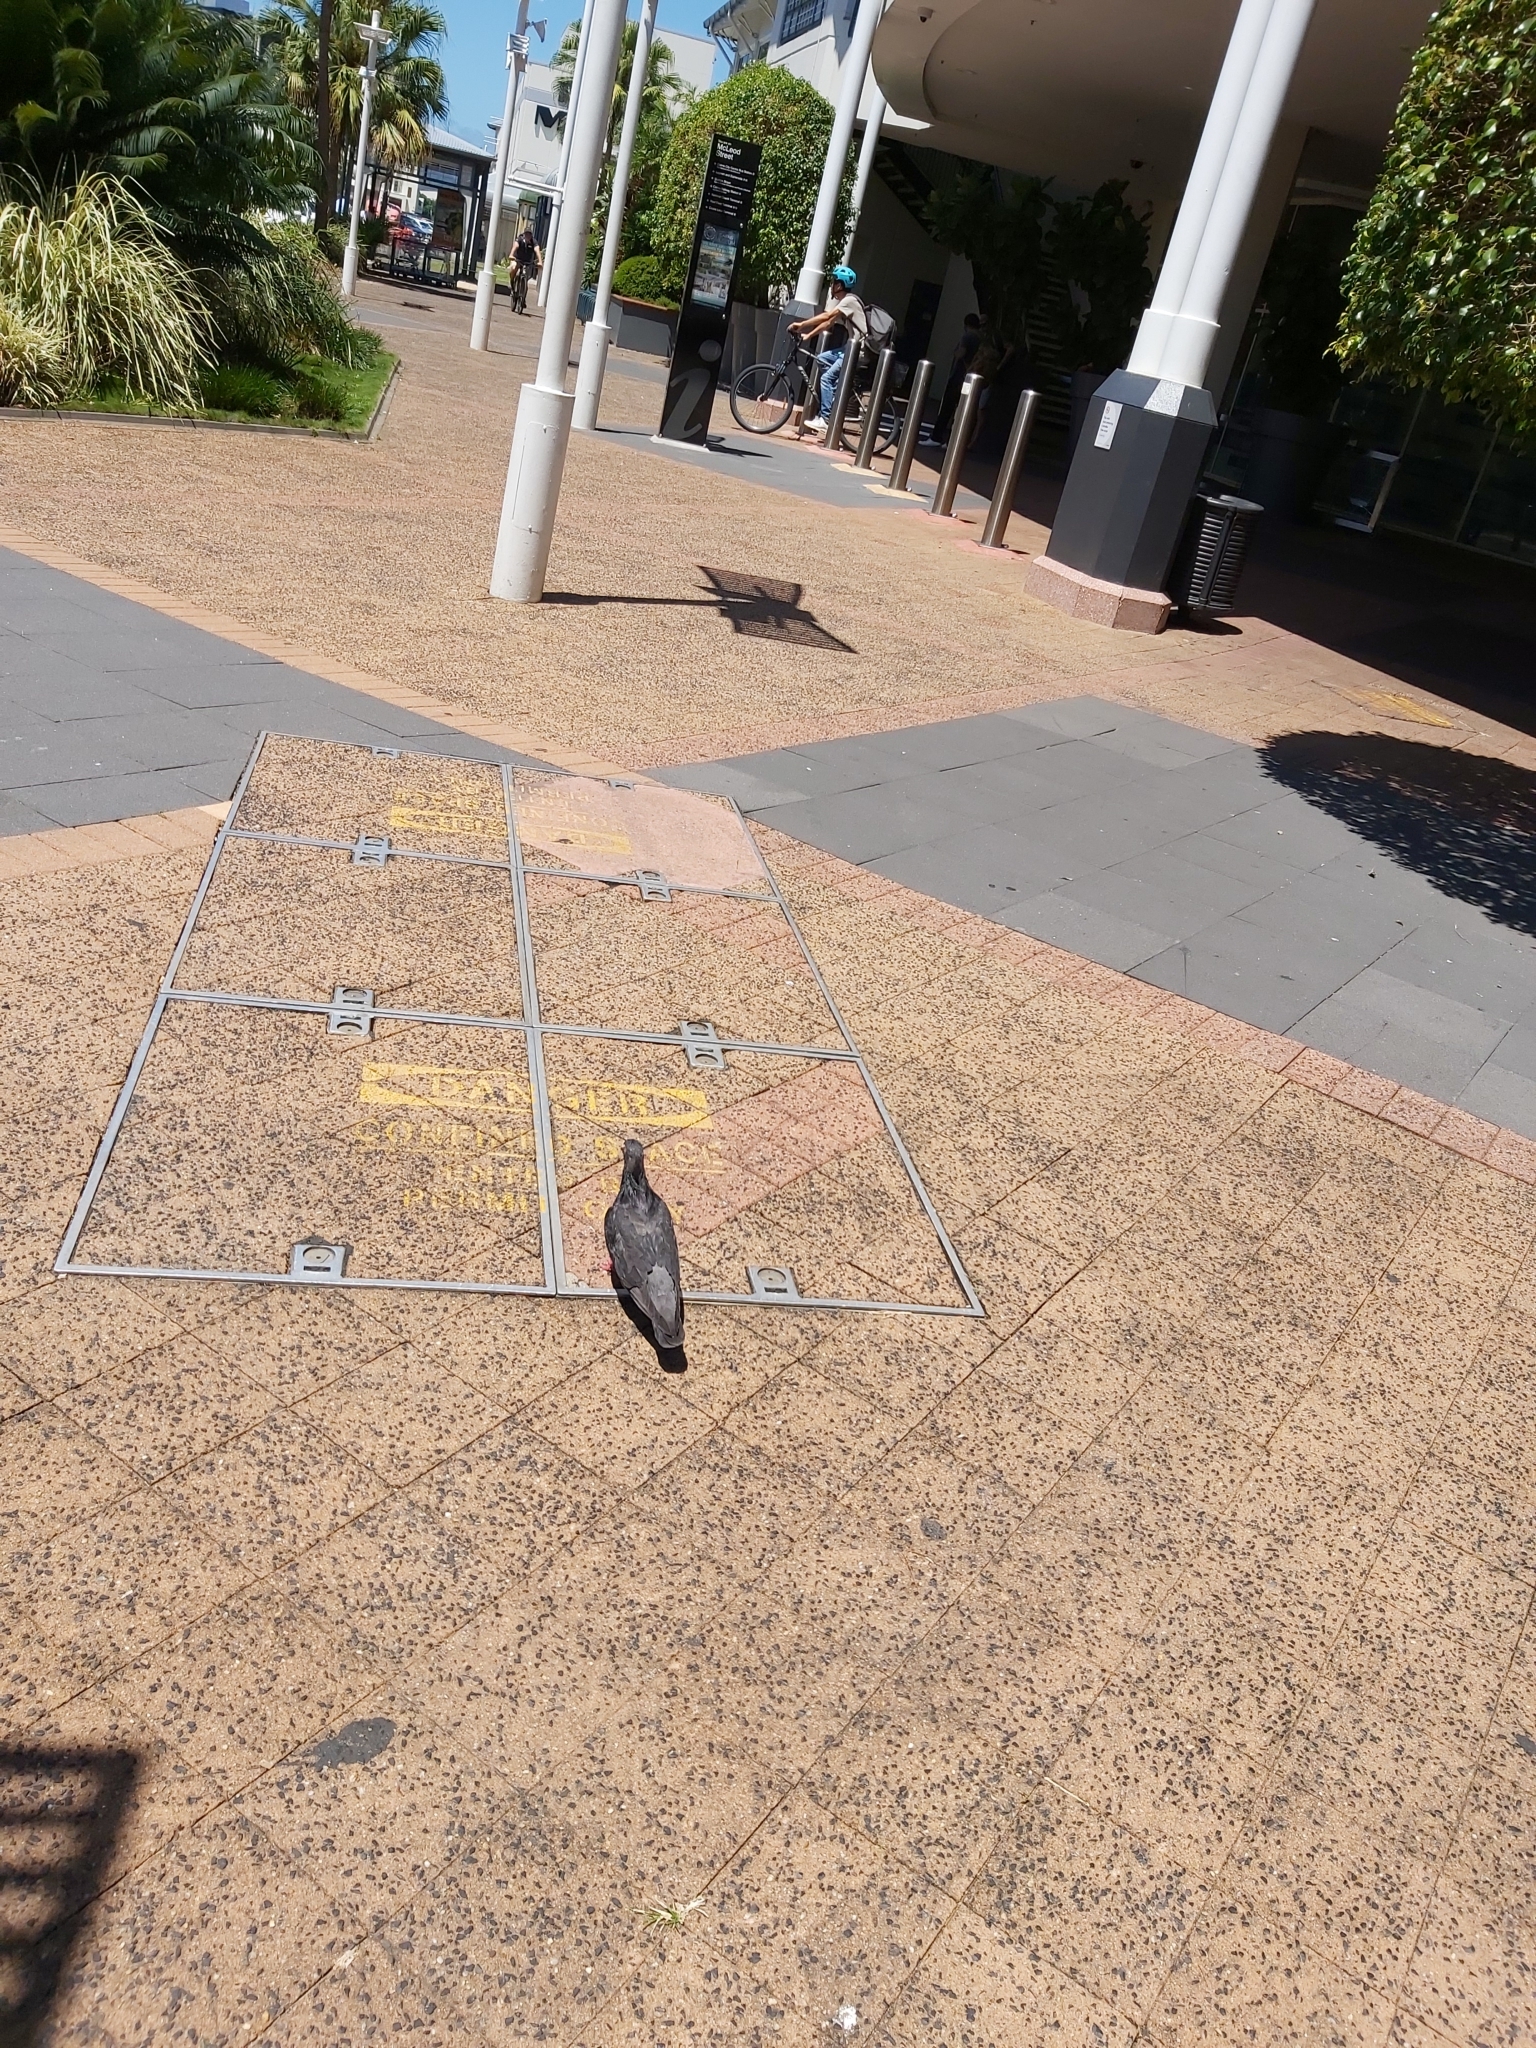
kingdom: Animalia
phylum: Chordata
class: Aves
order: Columbiformes
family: Columbidae
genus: Columba
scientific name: Columba livia
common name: Rock pigeon
